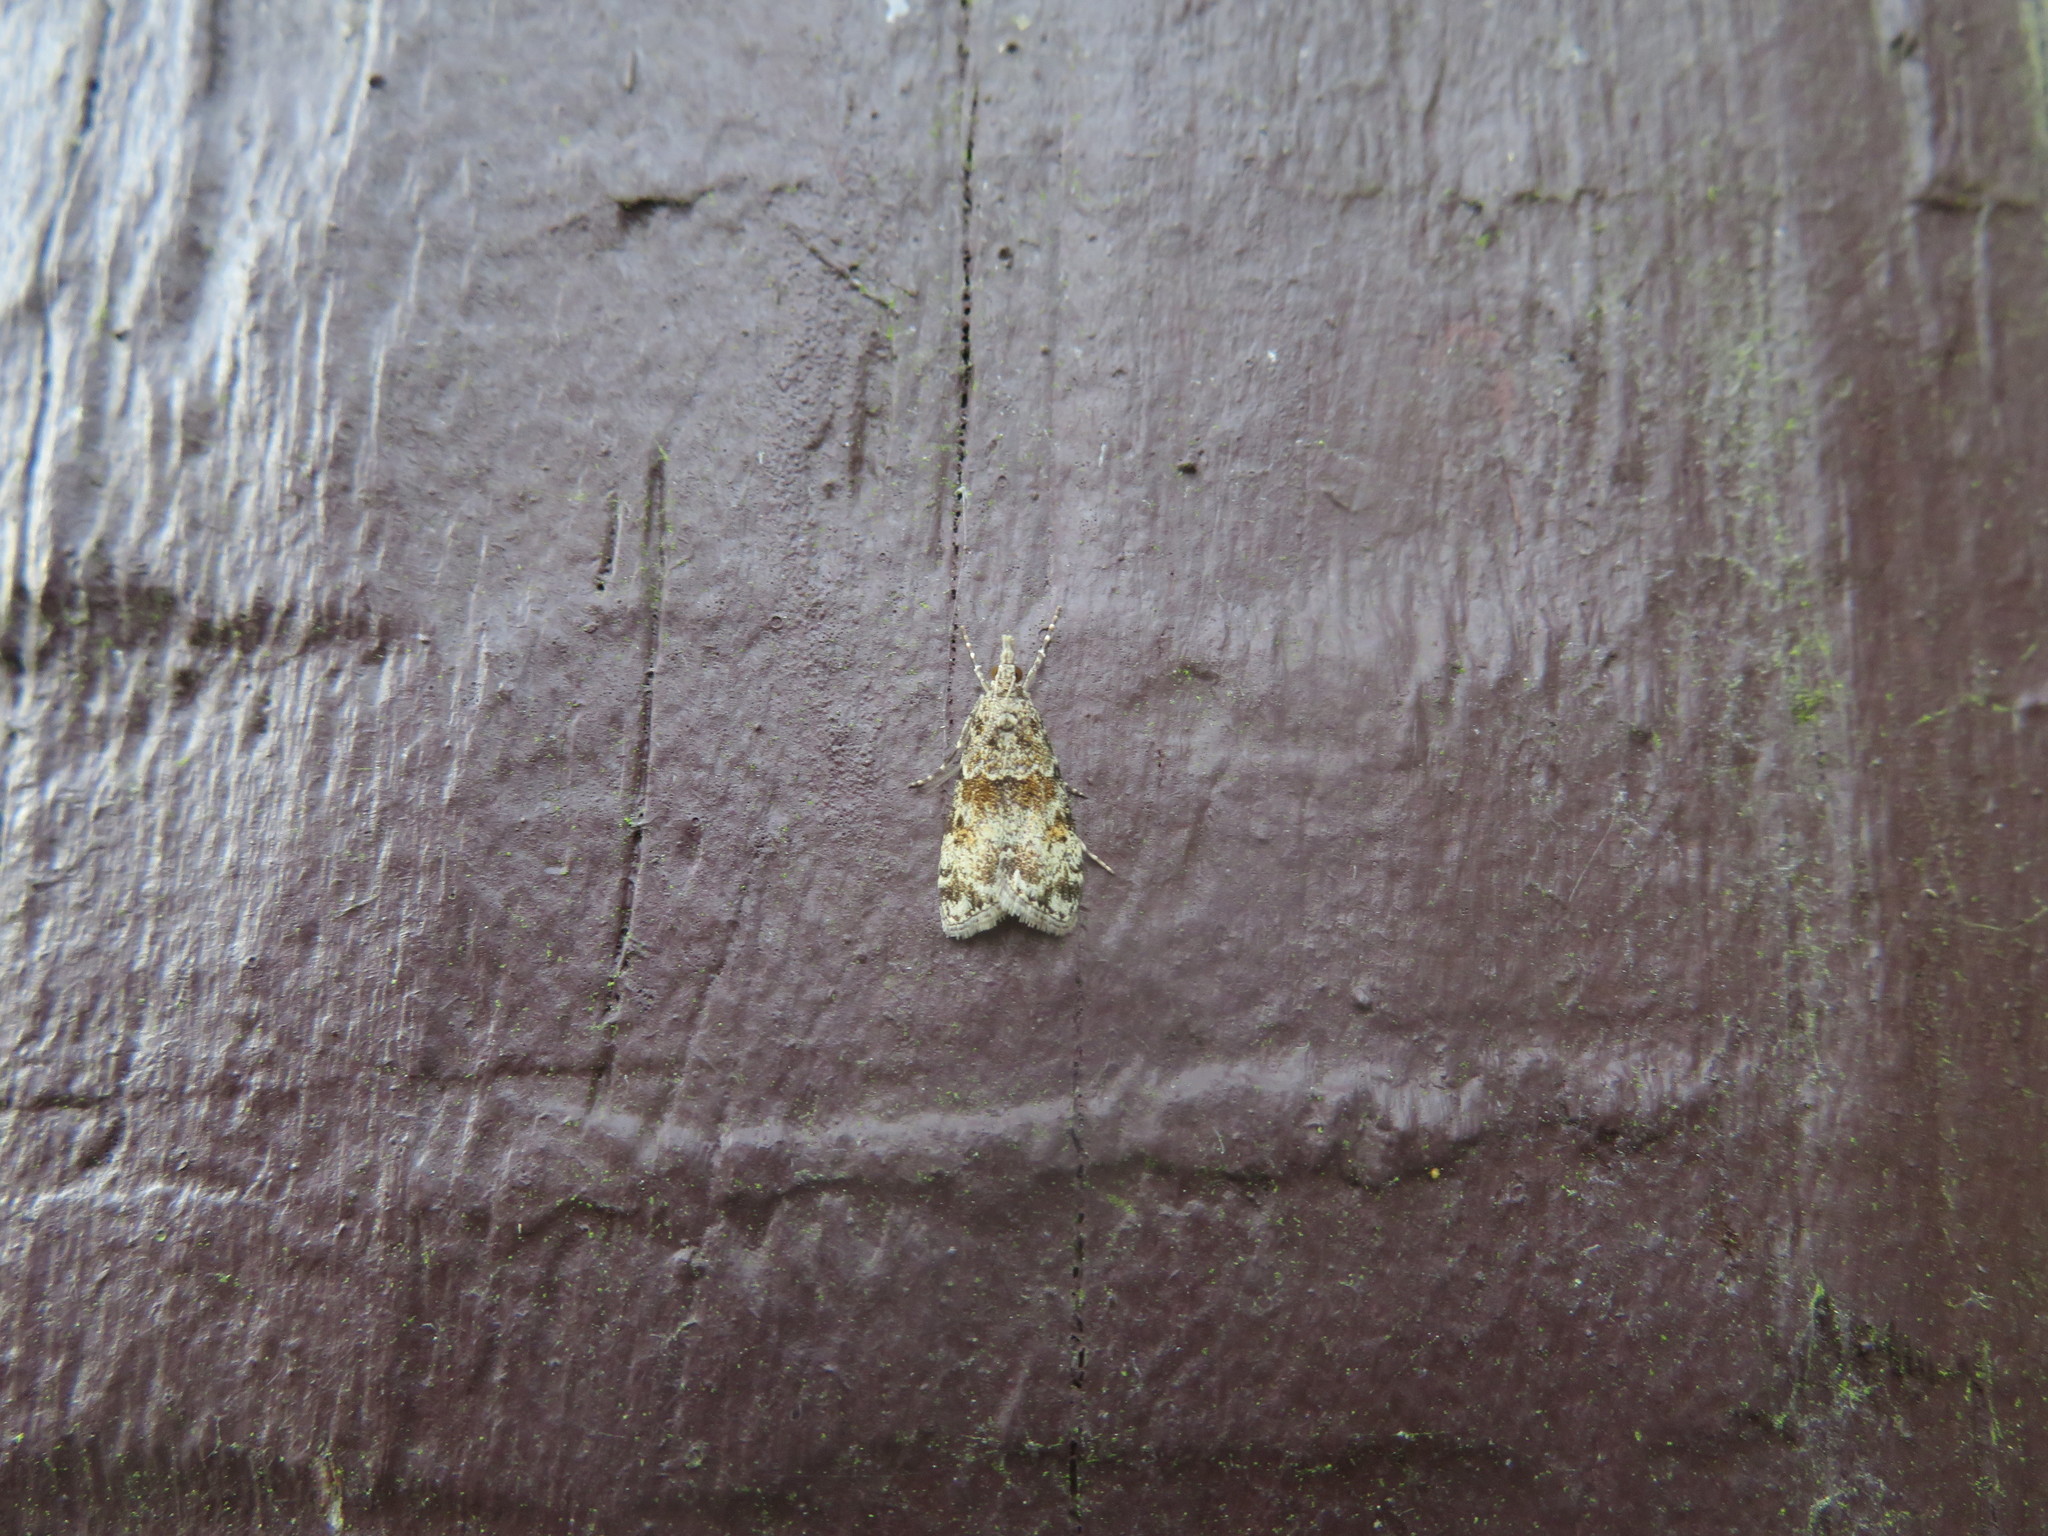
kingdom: Animalia
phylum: Arthropoda
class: Insecta
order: Lepidoptera
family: Crambidae
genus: Eudonia
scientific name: Eudonia subditella
